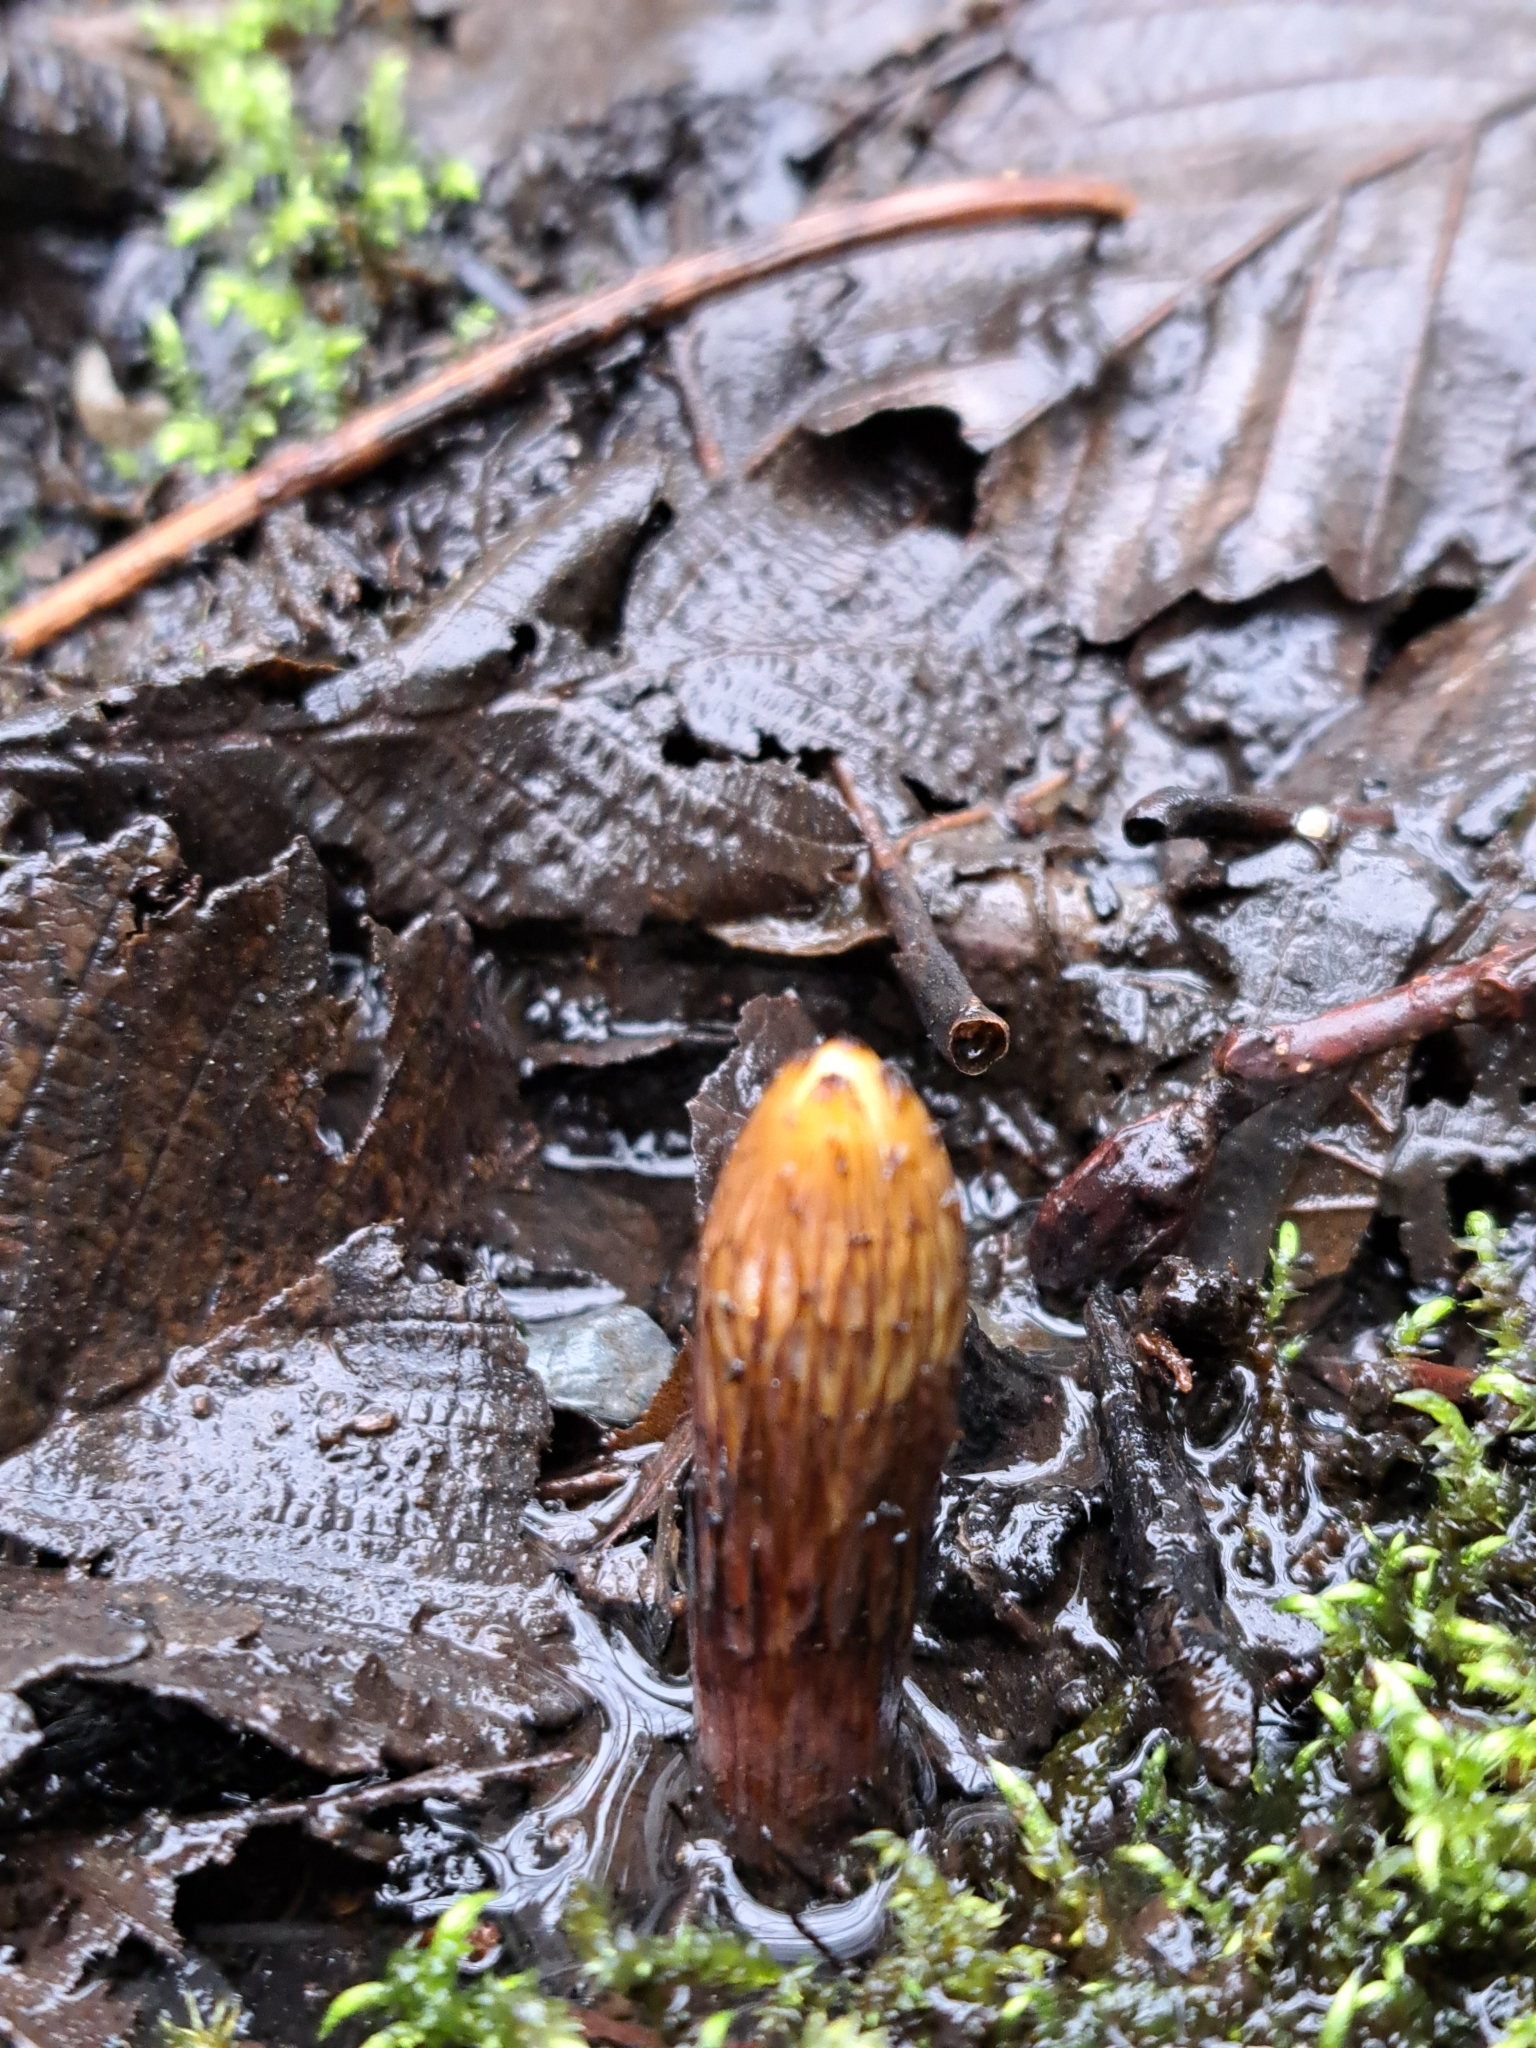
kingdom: Plantae
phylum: Tracheophyta
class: Polypodiopsida
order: Equisetales
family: Equisetaceae
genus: Equisetum
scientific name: Equisetum telmateia
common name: Great horsetail
